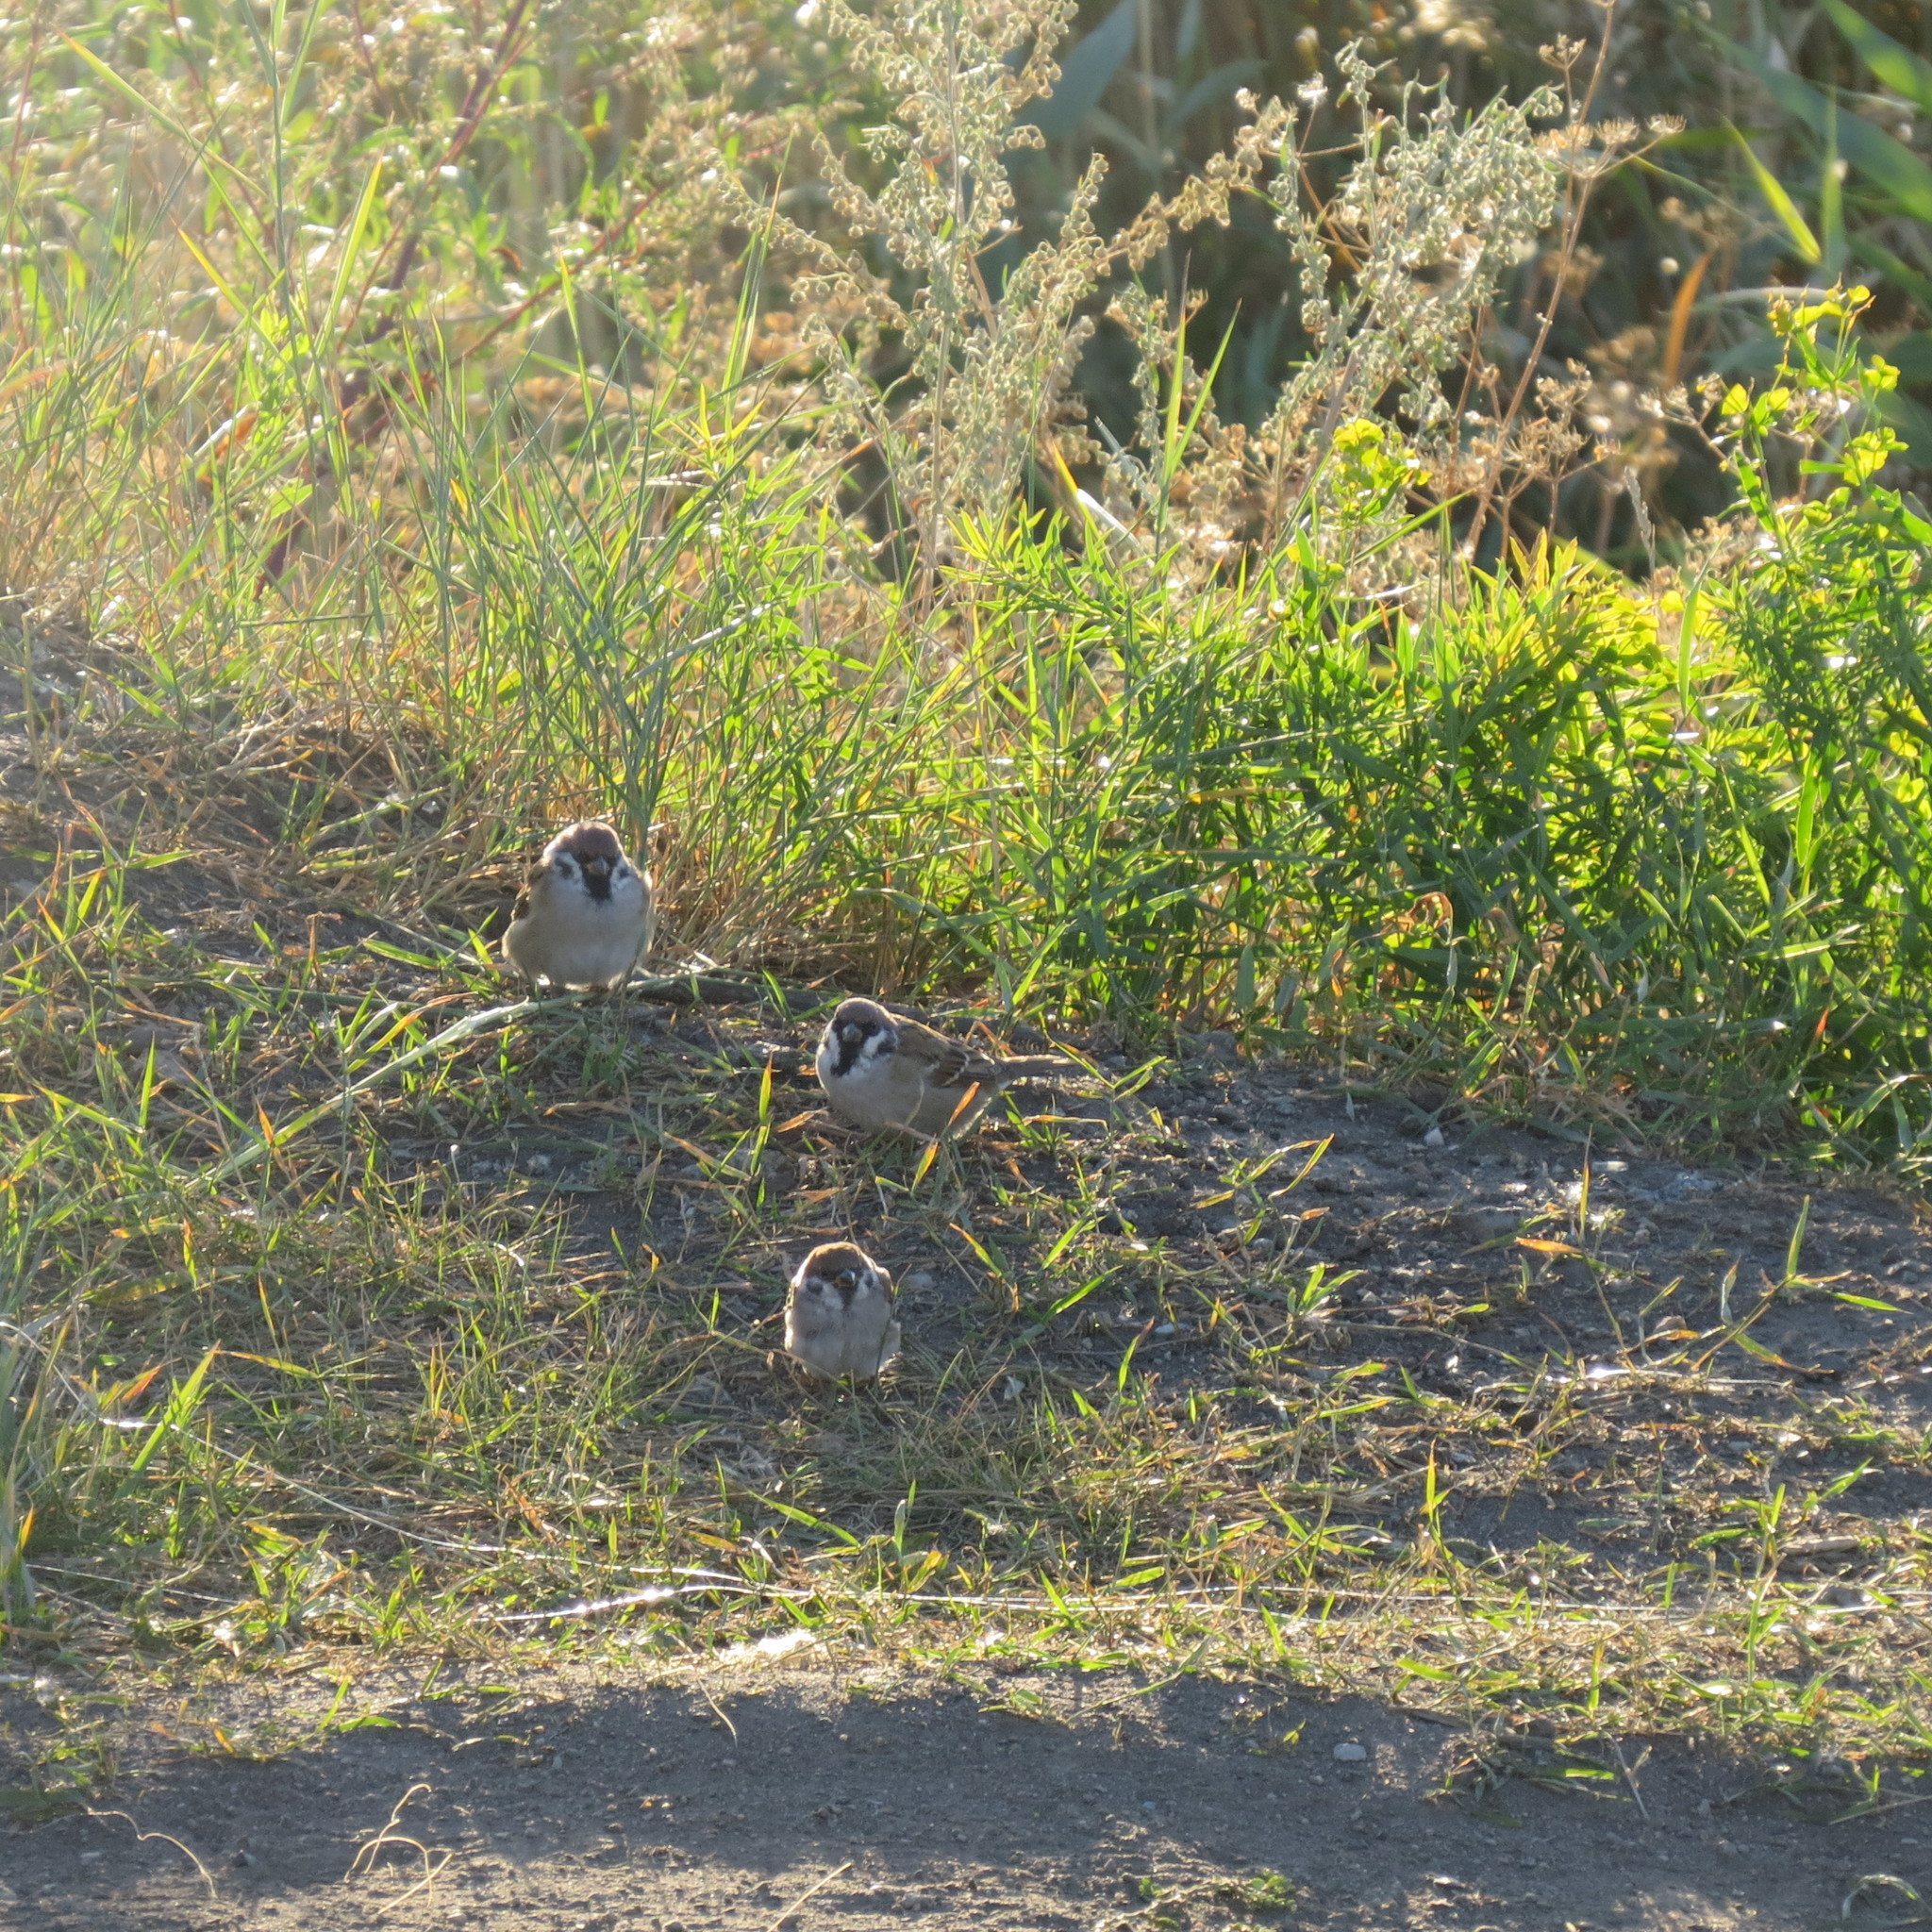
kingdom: Animalia
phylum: Chordata
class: Aves
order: Passeriformes
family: Passeridae
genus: Passer
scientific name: Passer montanus
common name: Eurasian tree sparrow
